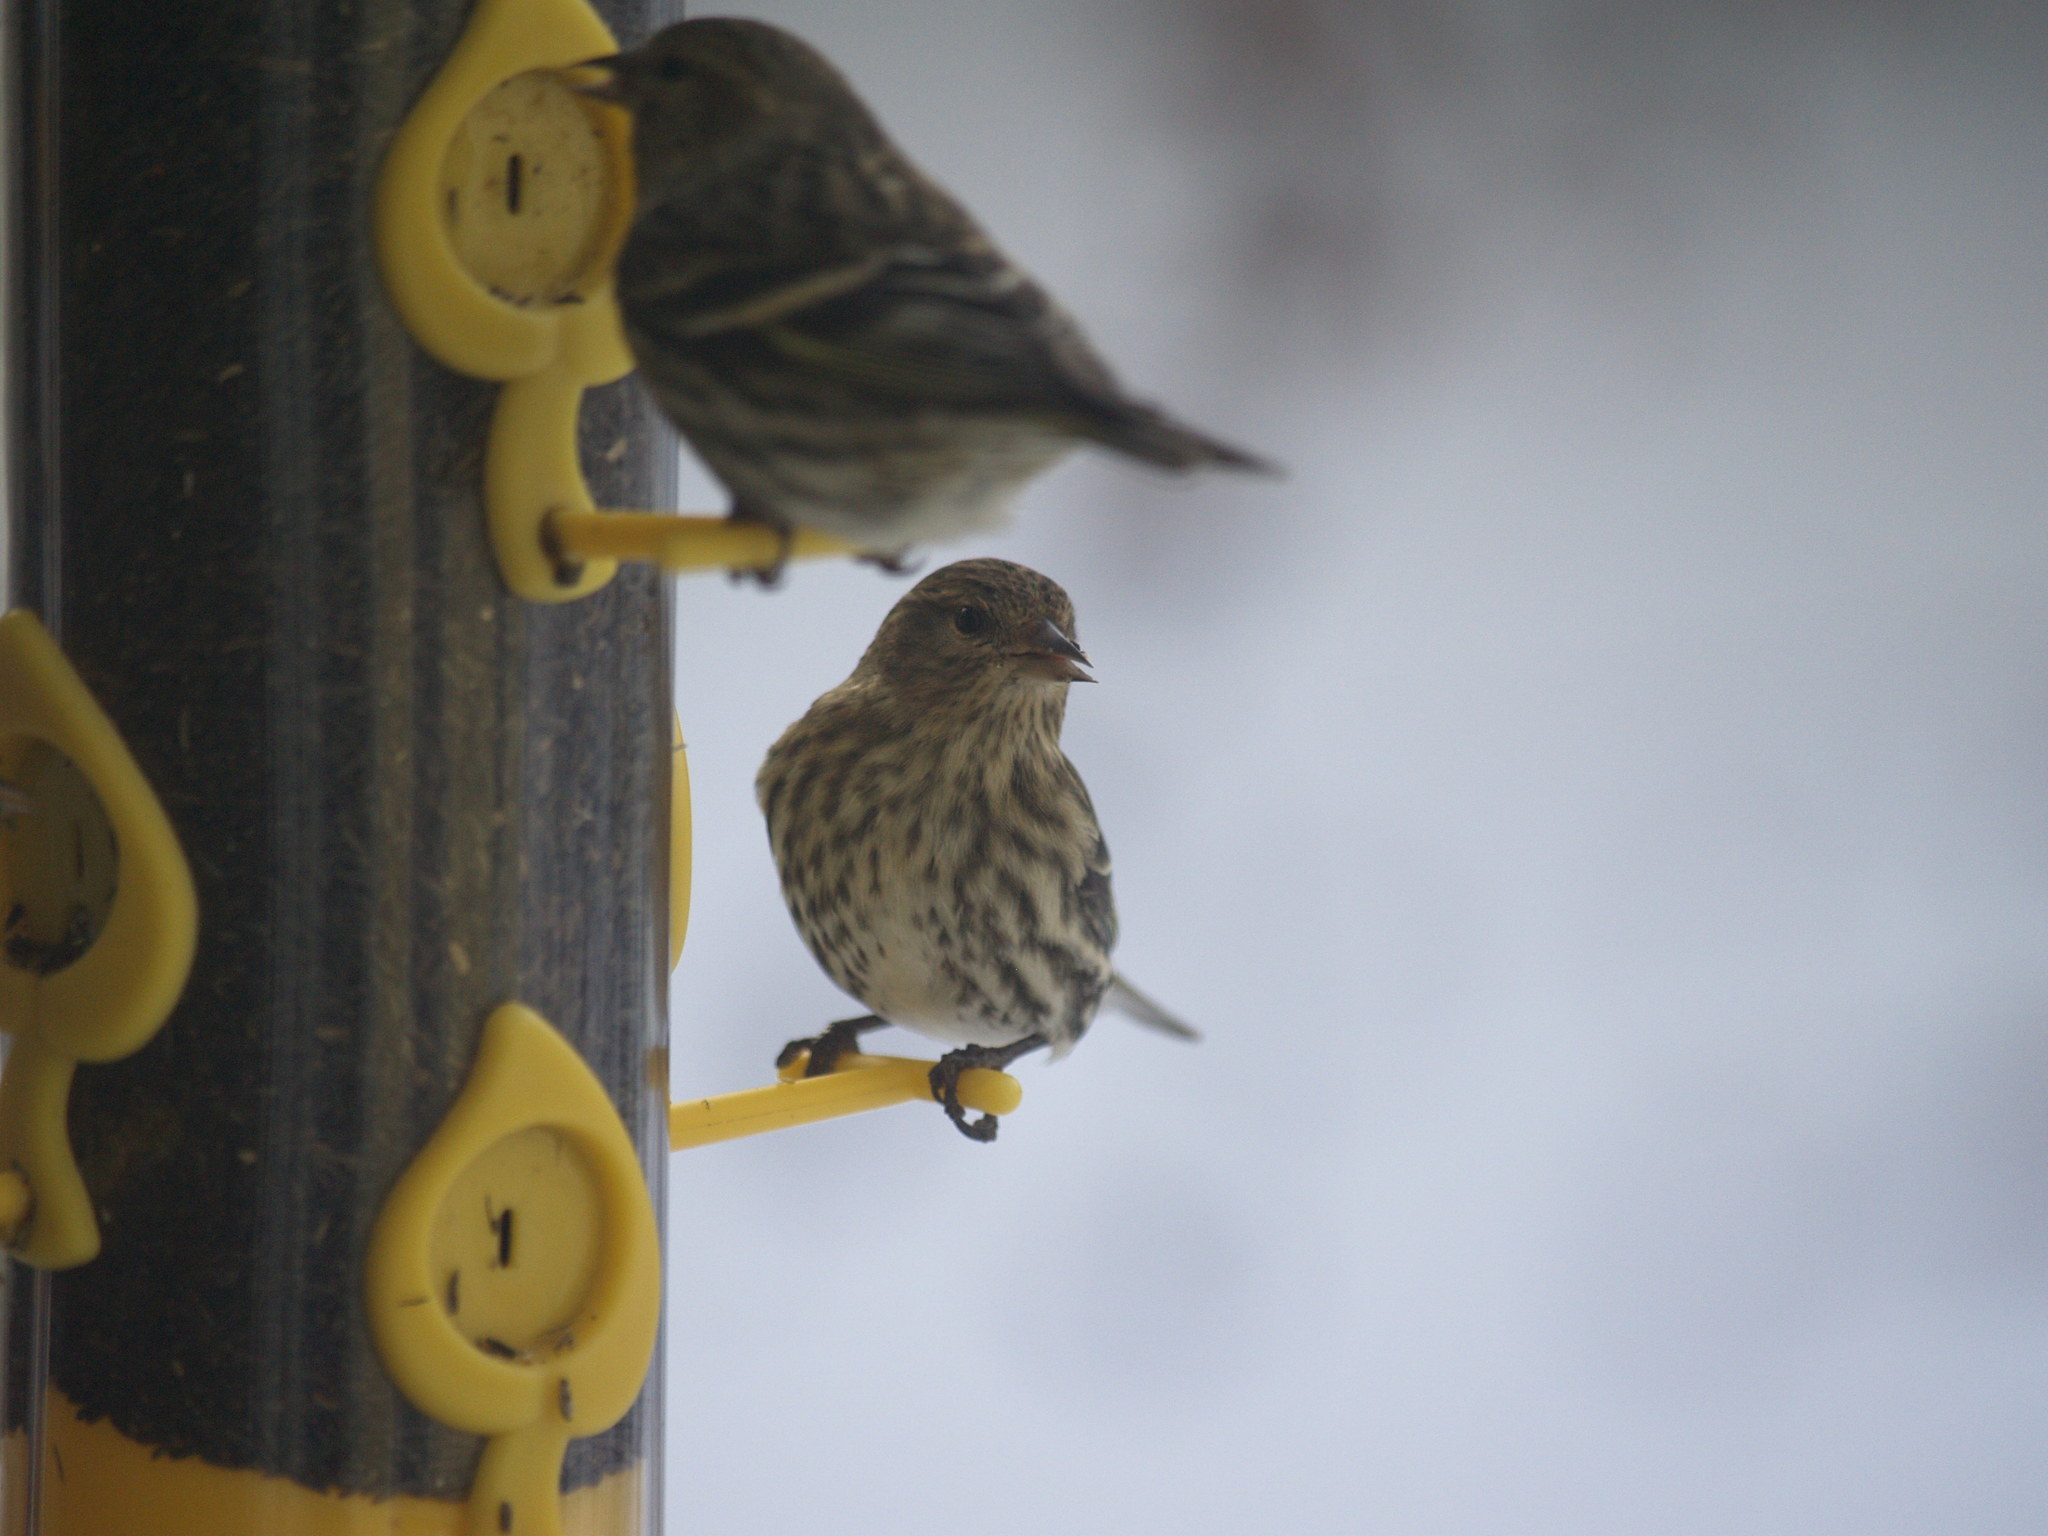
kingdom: Animalia
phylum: Chordata
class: Aves
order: Passeriformes
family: Fringillidae
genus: Spinus
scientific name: Spinus pinus
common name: Pine siskin
